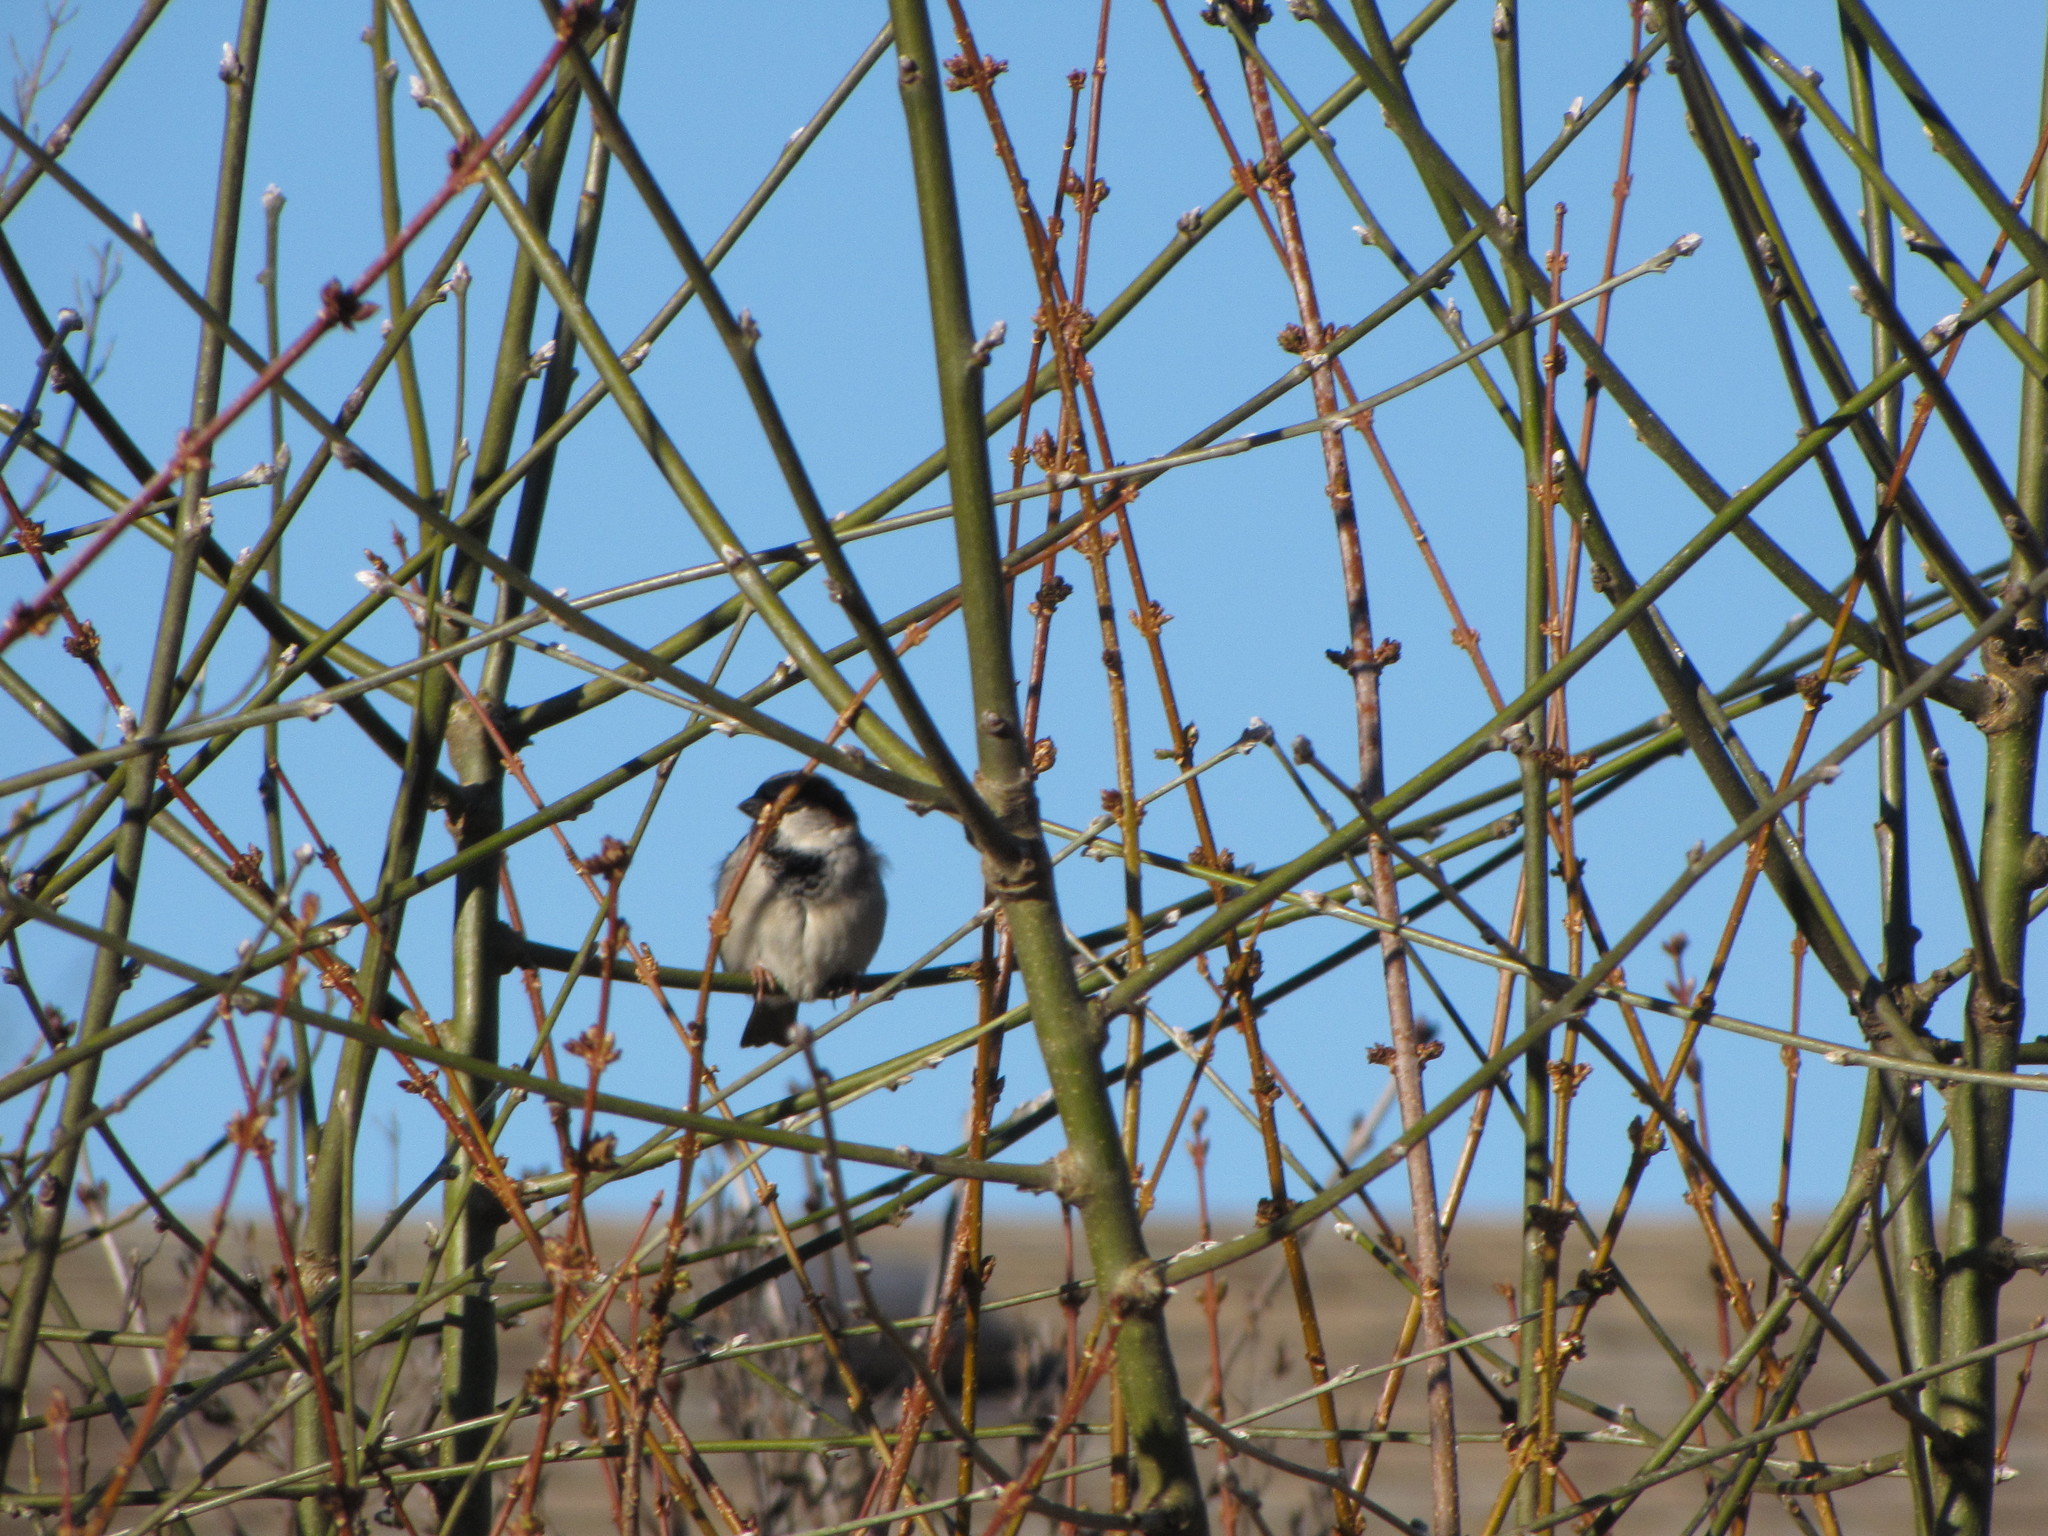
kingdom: Animalia
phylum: Chordata
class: Aves
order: Passeriformes
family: Passeridae
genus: Passer
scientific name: Passer domesticus
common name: House sparrow
